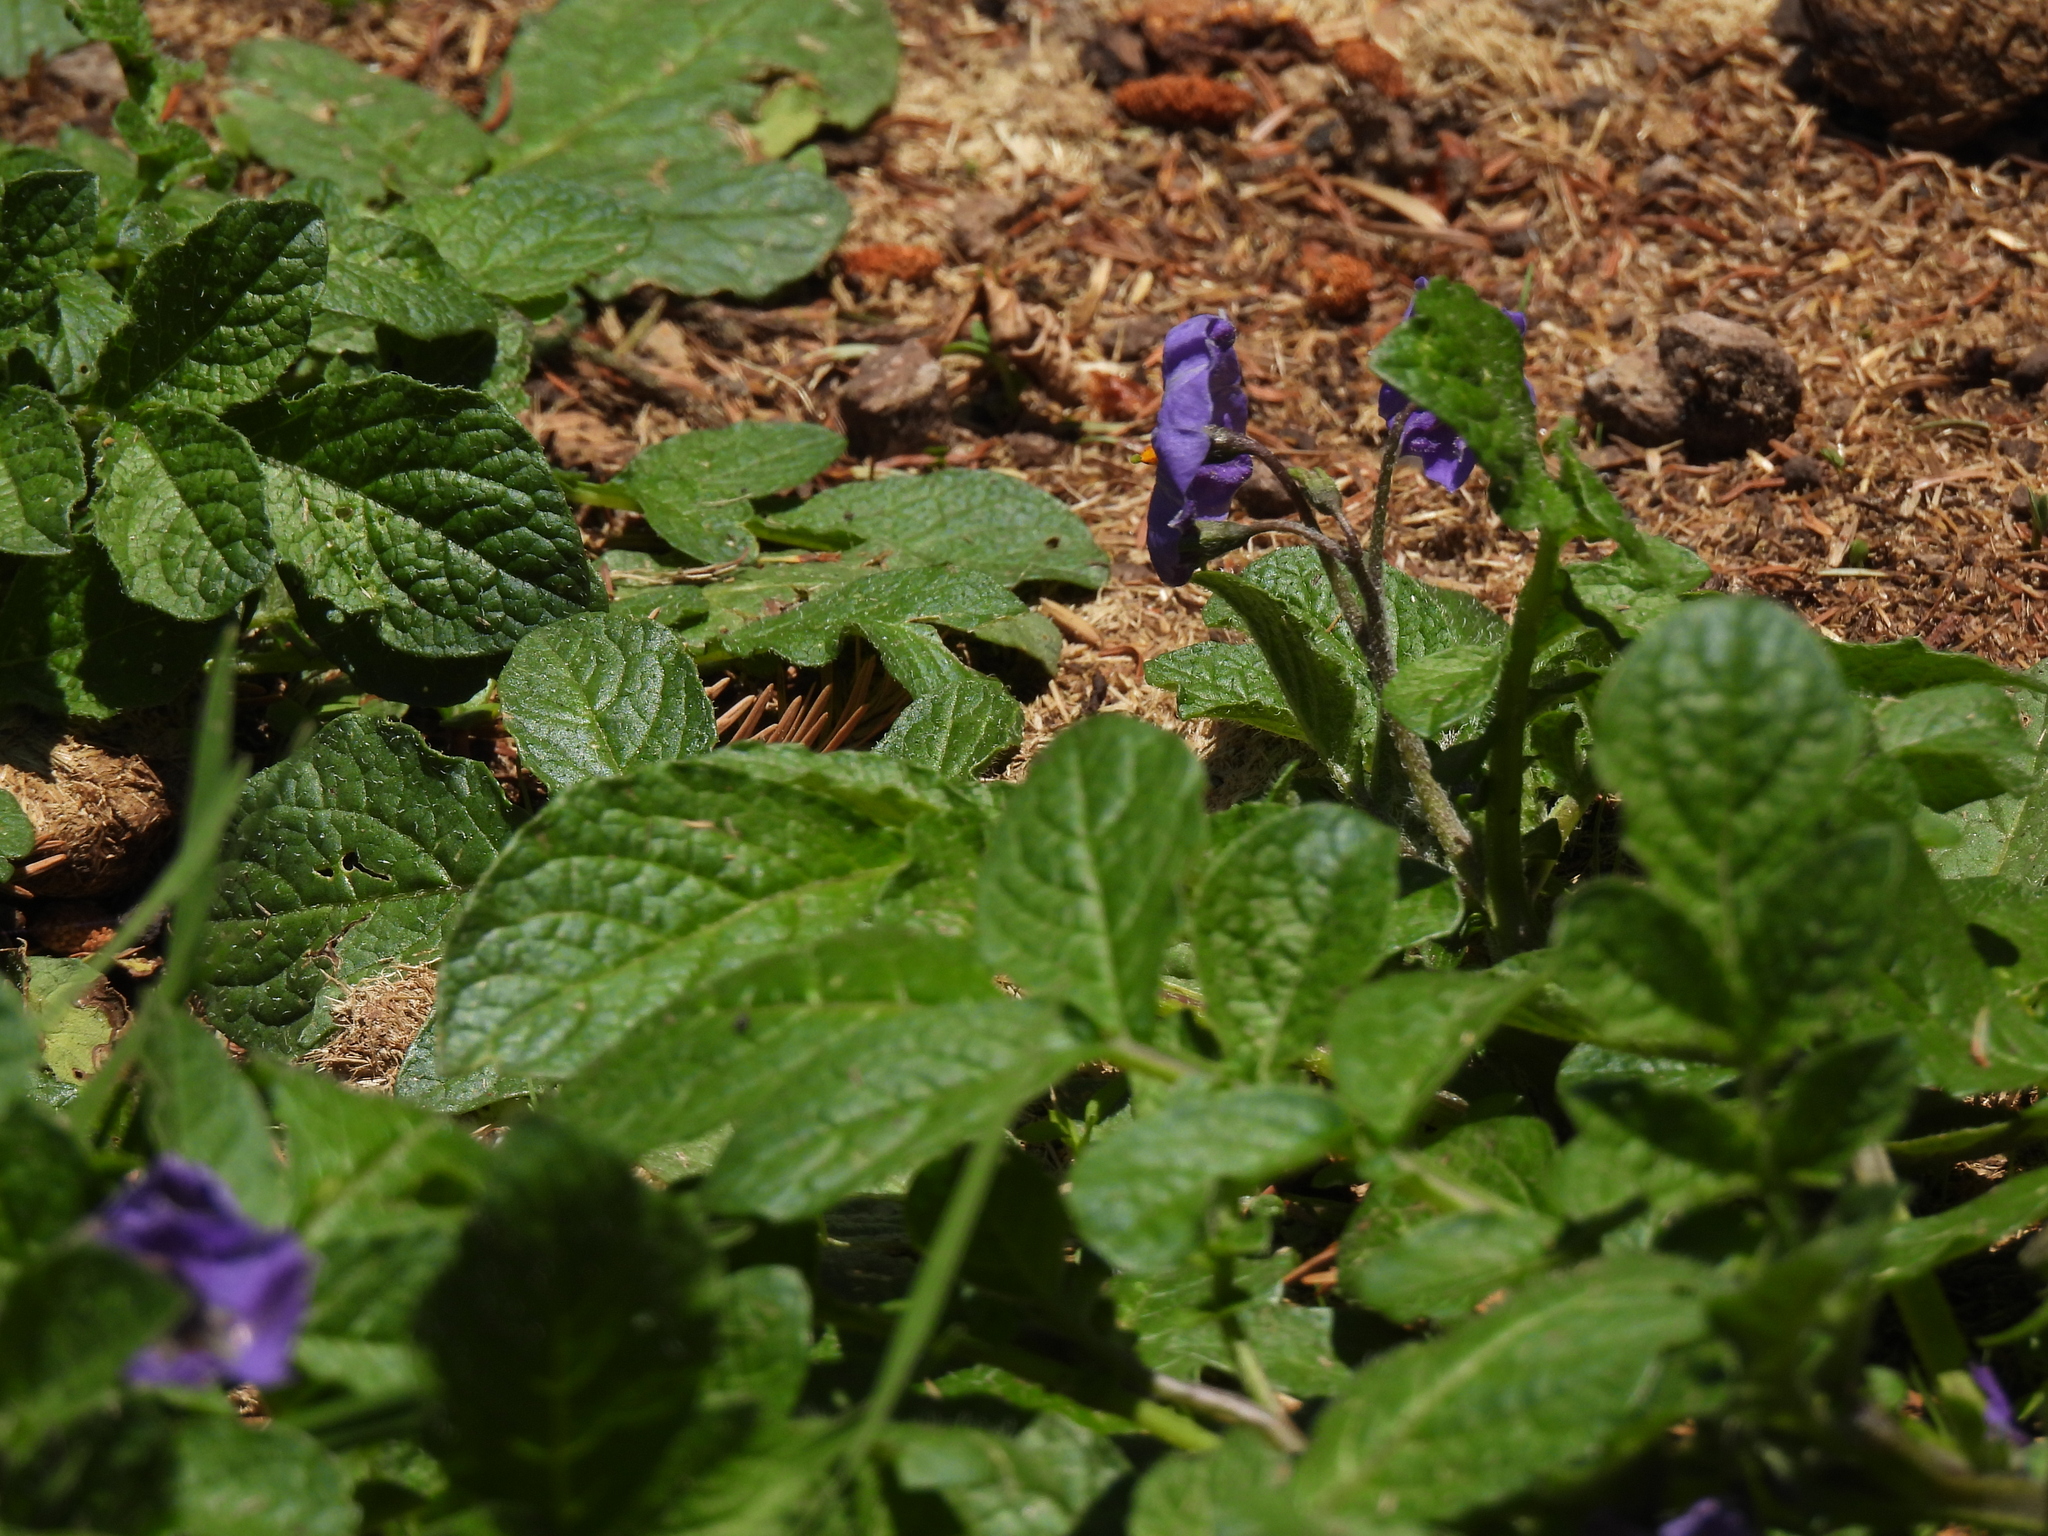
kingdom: Plantae
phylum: Tracheophyta
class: Magnoliopsida
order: Solanales
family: Solanaceae
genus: Solanum
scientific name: Solanum demissum
